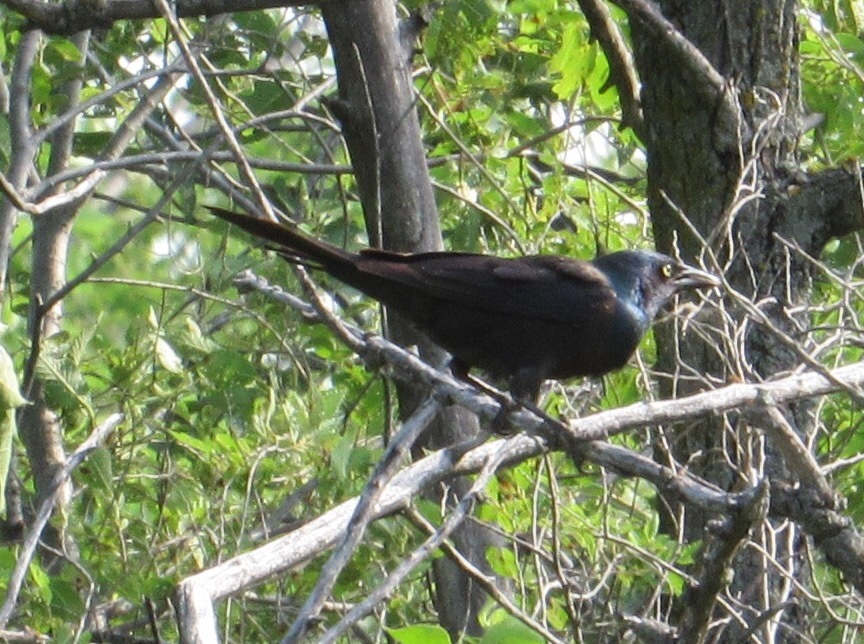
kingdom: Animalia
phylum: Chordata
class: Aves
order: Passeriformes
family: Icteridae
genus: Quiscalus
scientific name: Quiscalus quiscula
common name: Common grackle
